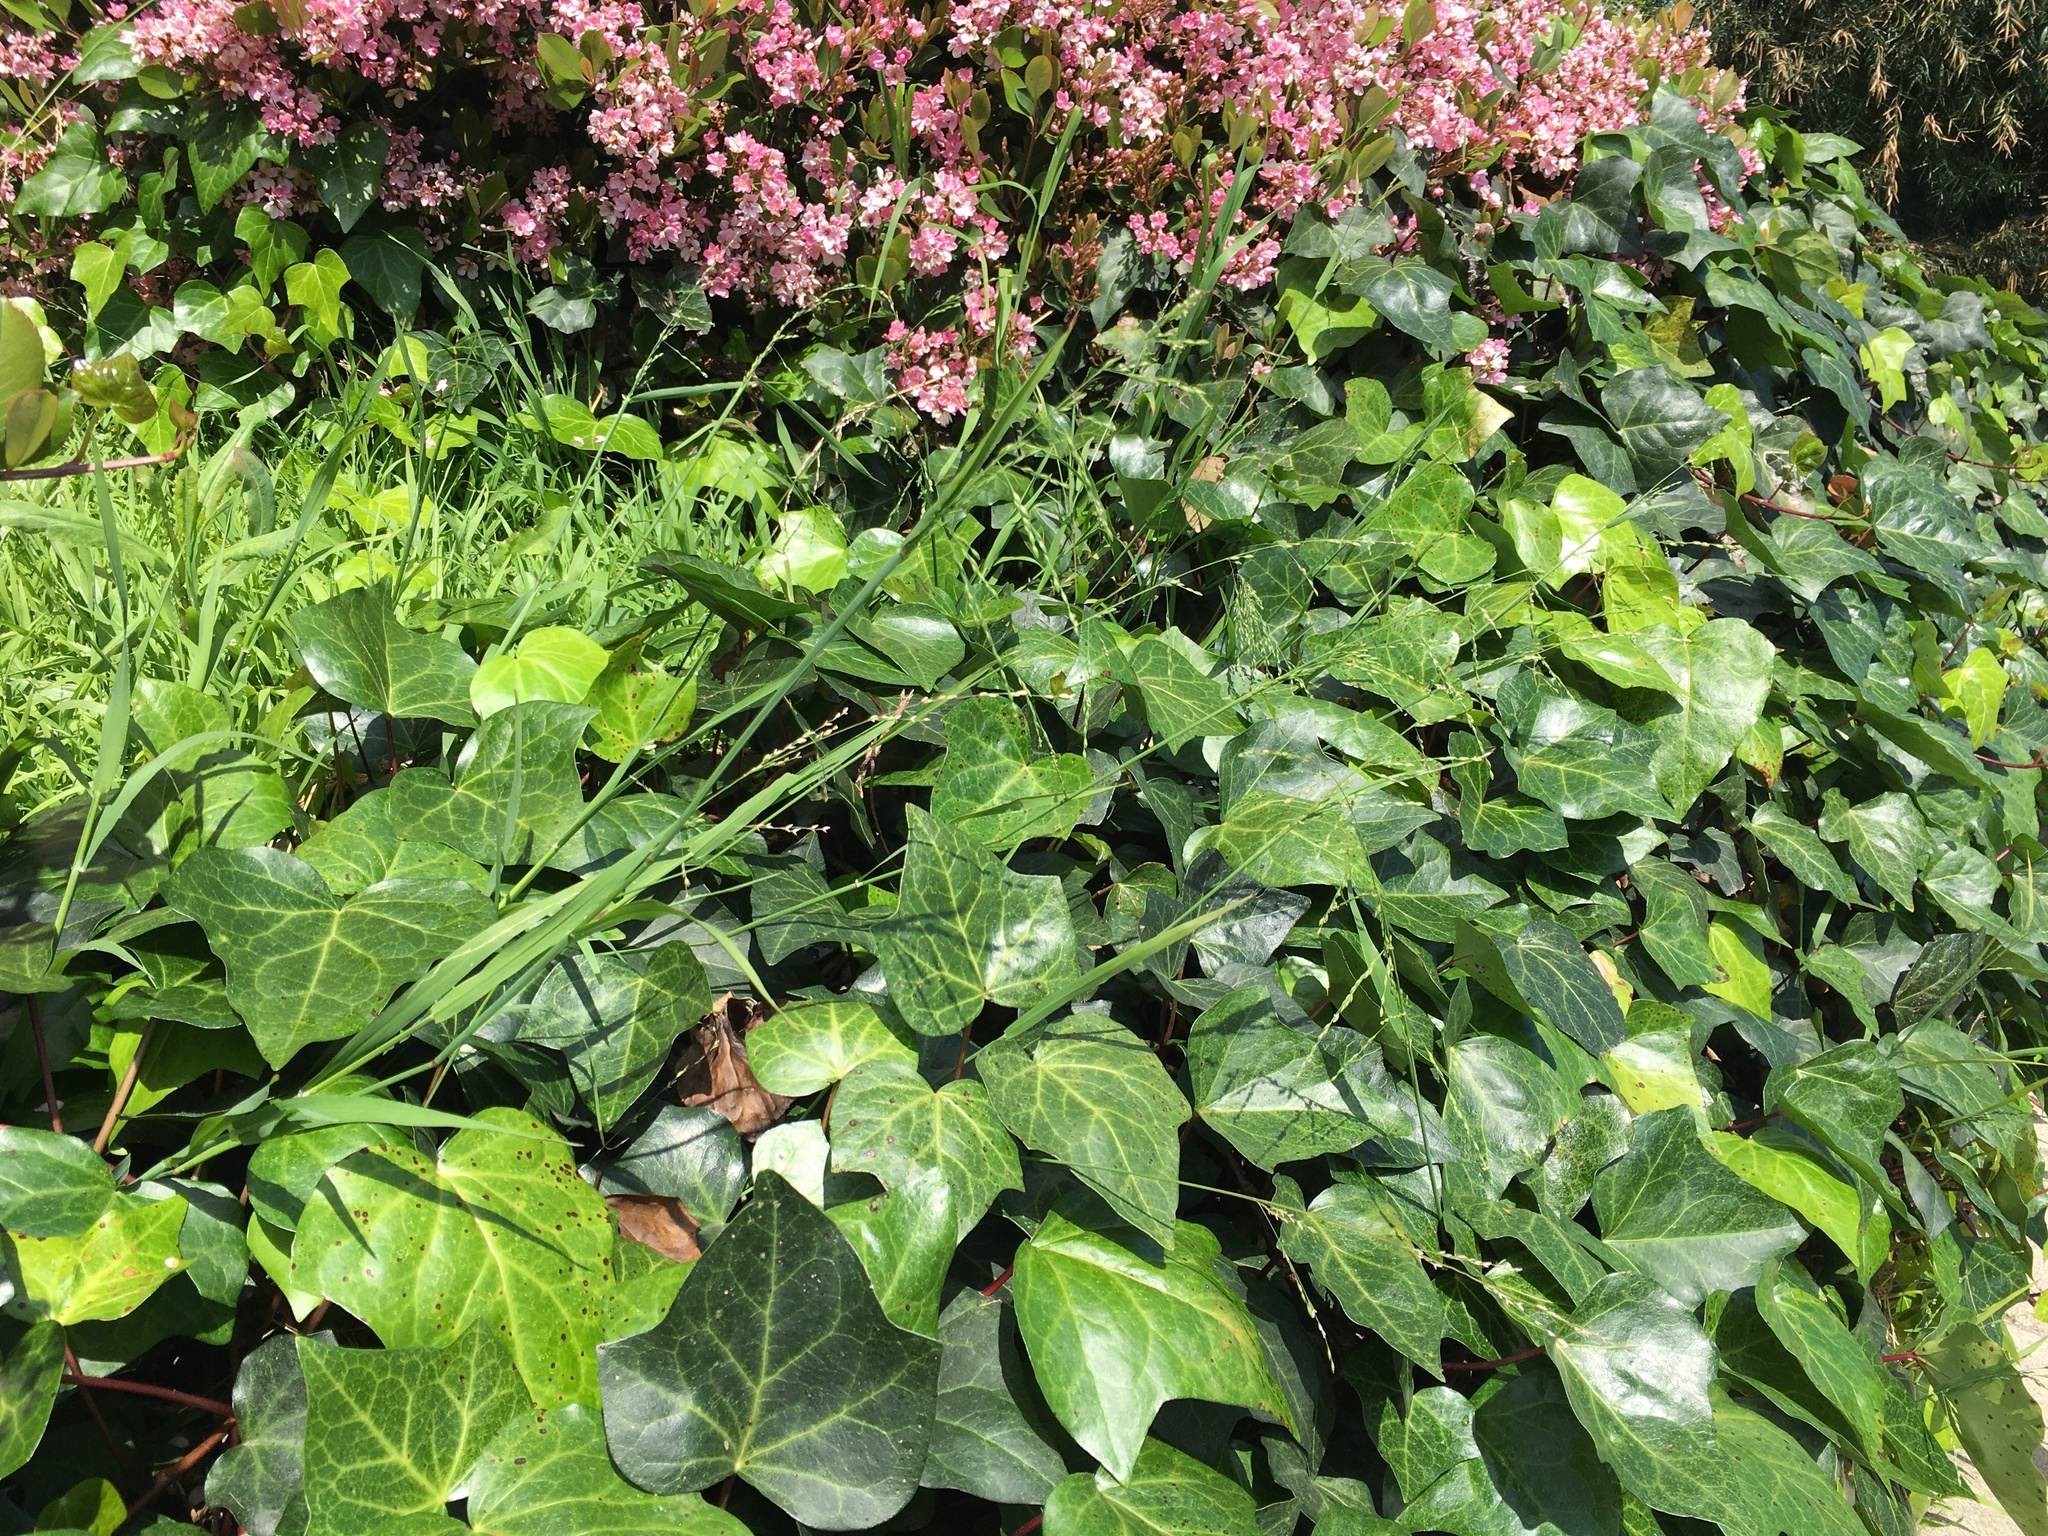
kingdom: Plantae
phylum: Tracheophyta
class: Liliopsida
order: Poales
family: Poaceae
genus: Ehrharta
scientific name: Ehrharta erecta
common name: Panic veldtgrass
